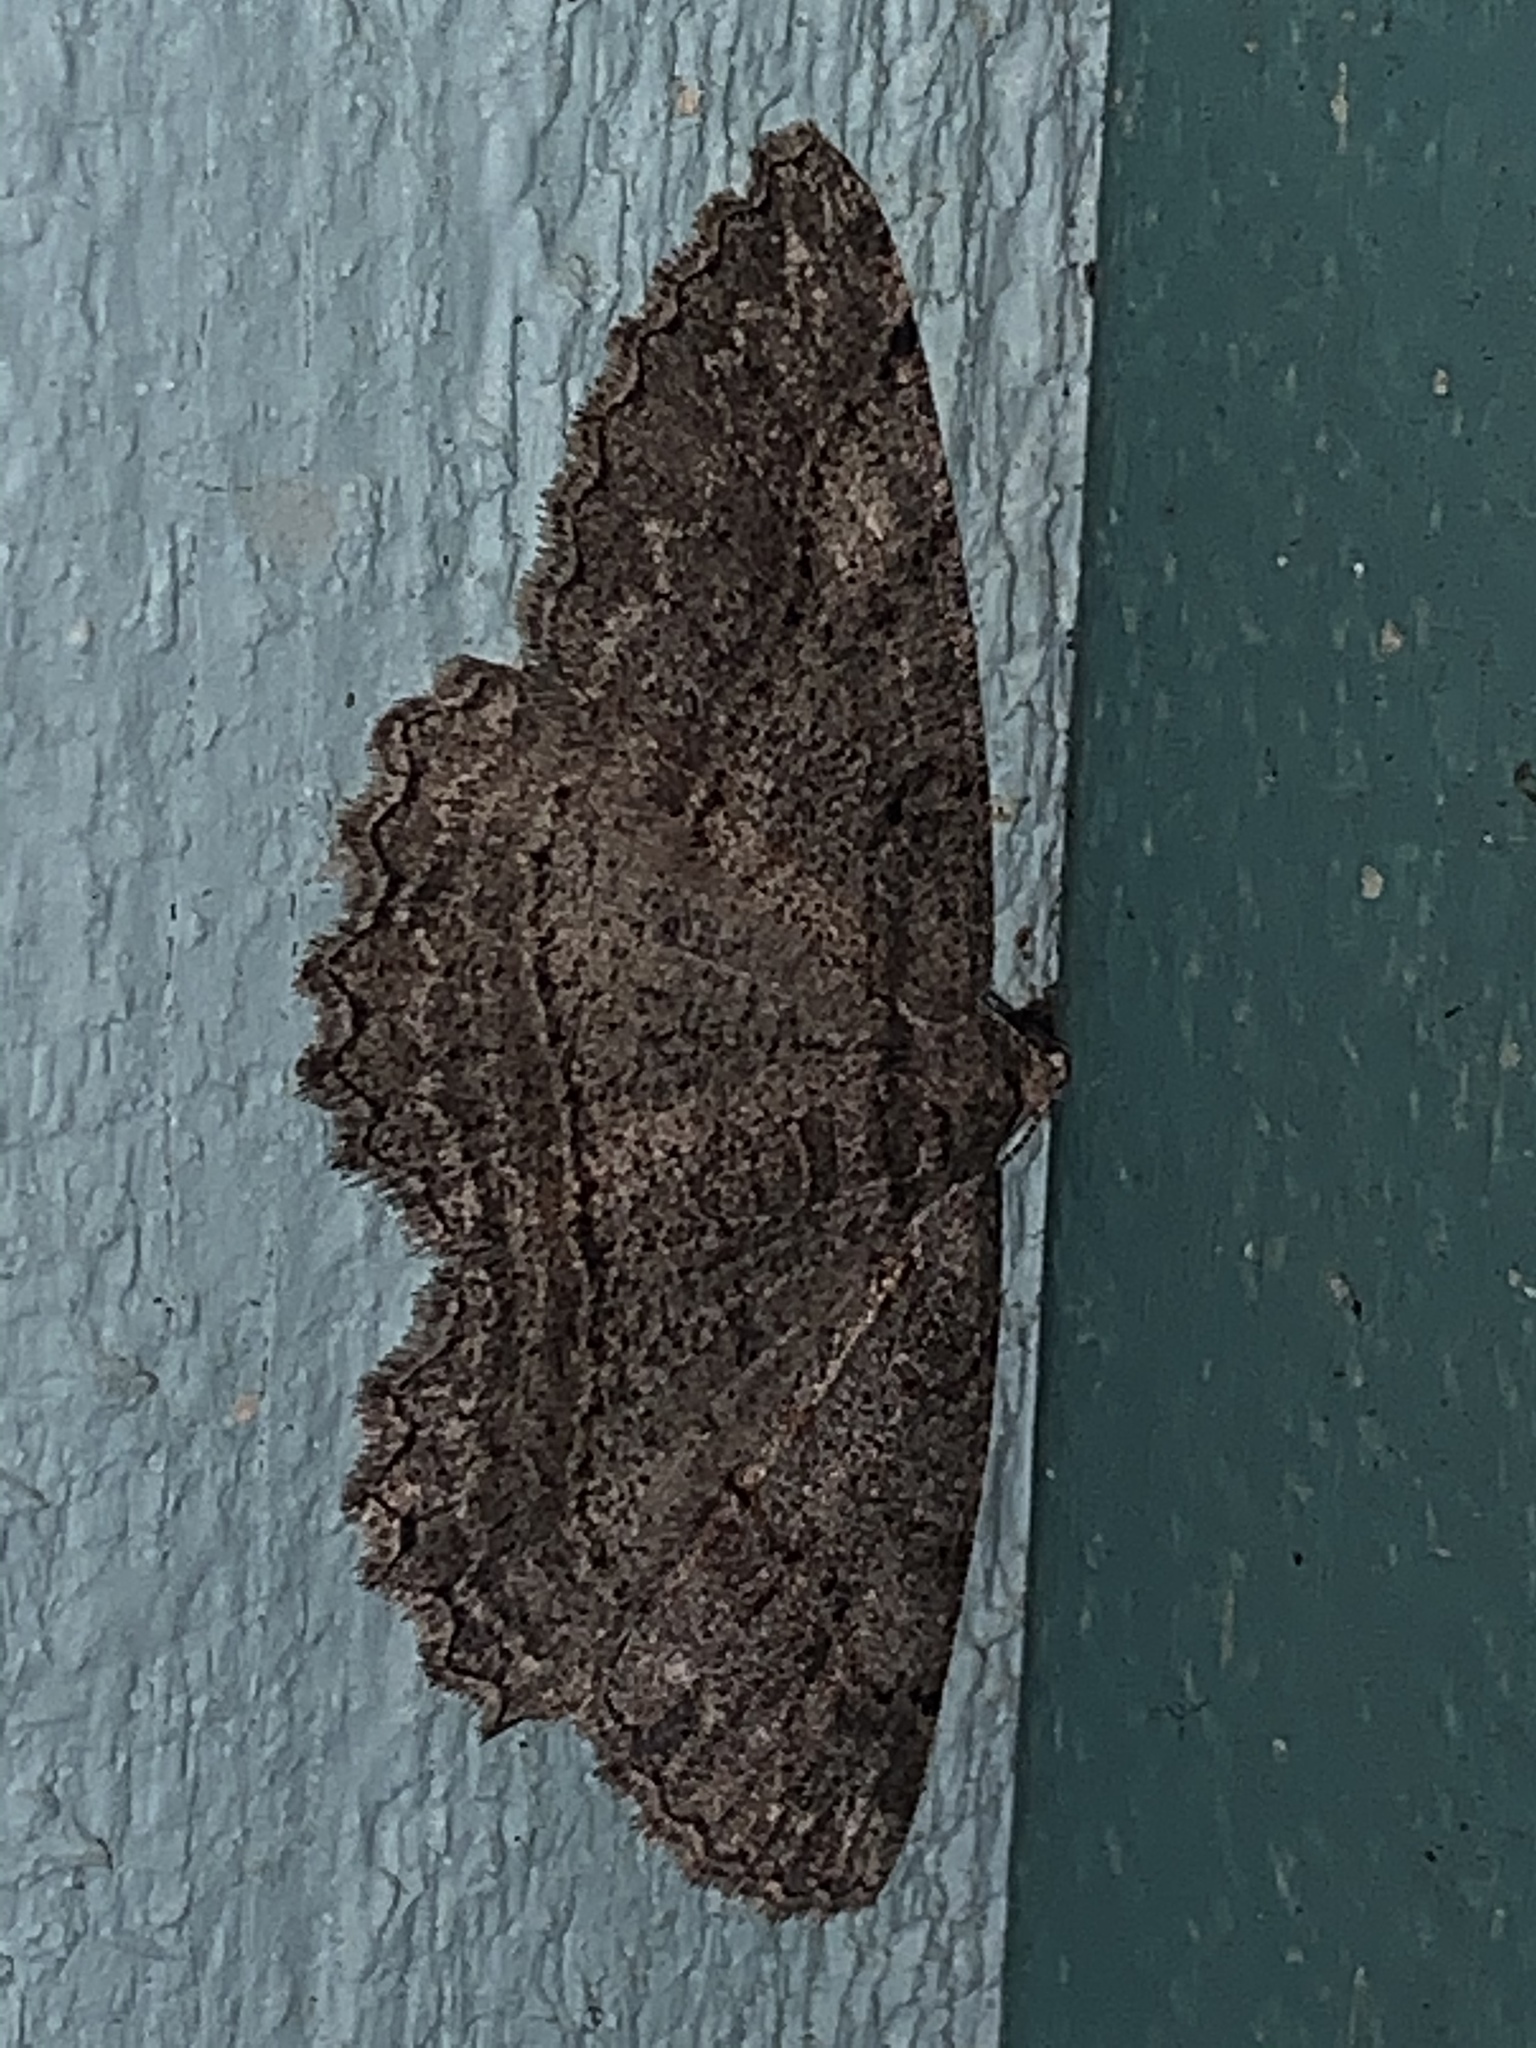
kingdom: Animalia
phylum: Arthropoda
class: Insecta
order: Lepidoptera
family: Geometridae
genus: Neoalcis
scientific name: Neoalcis californiaria
